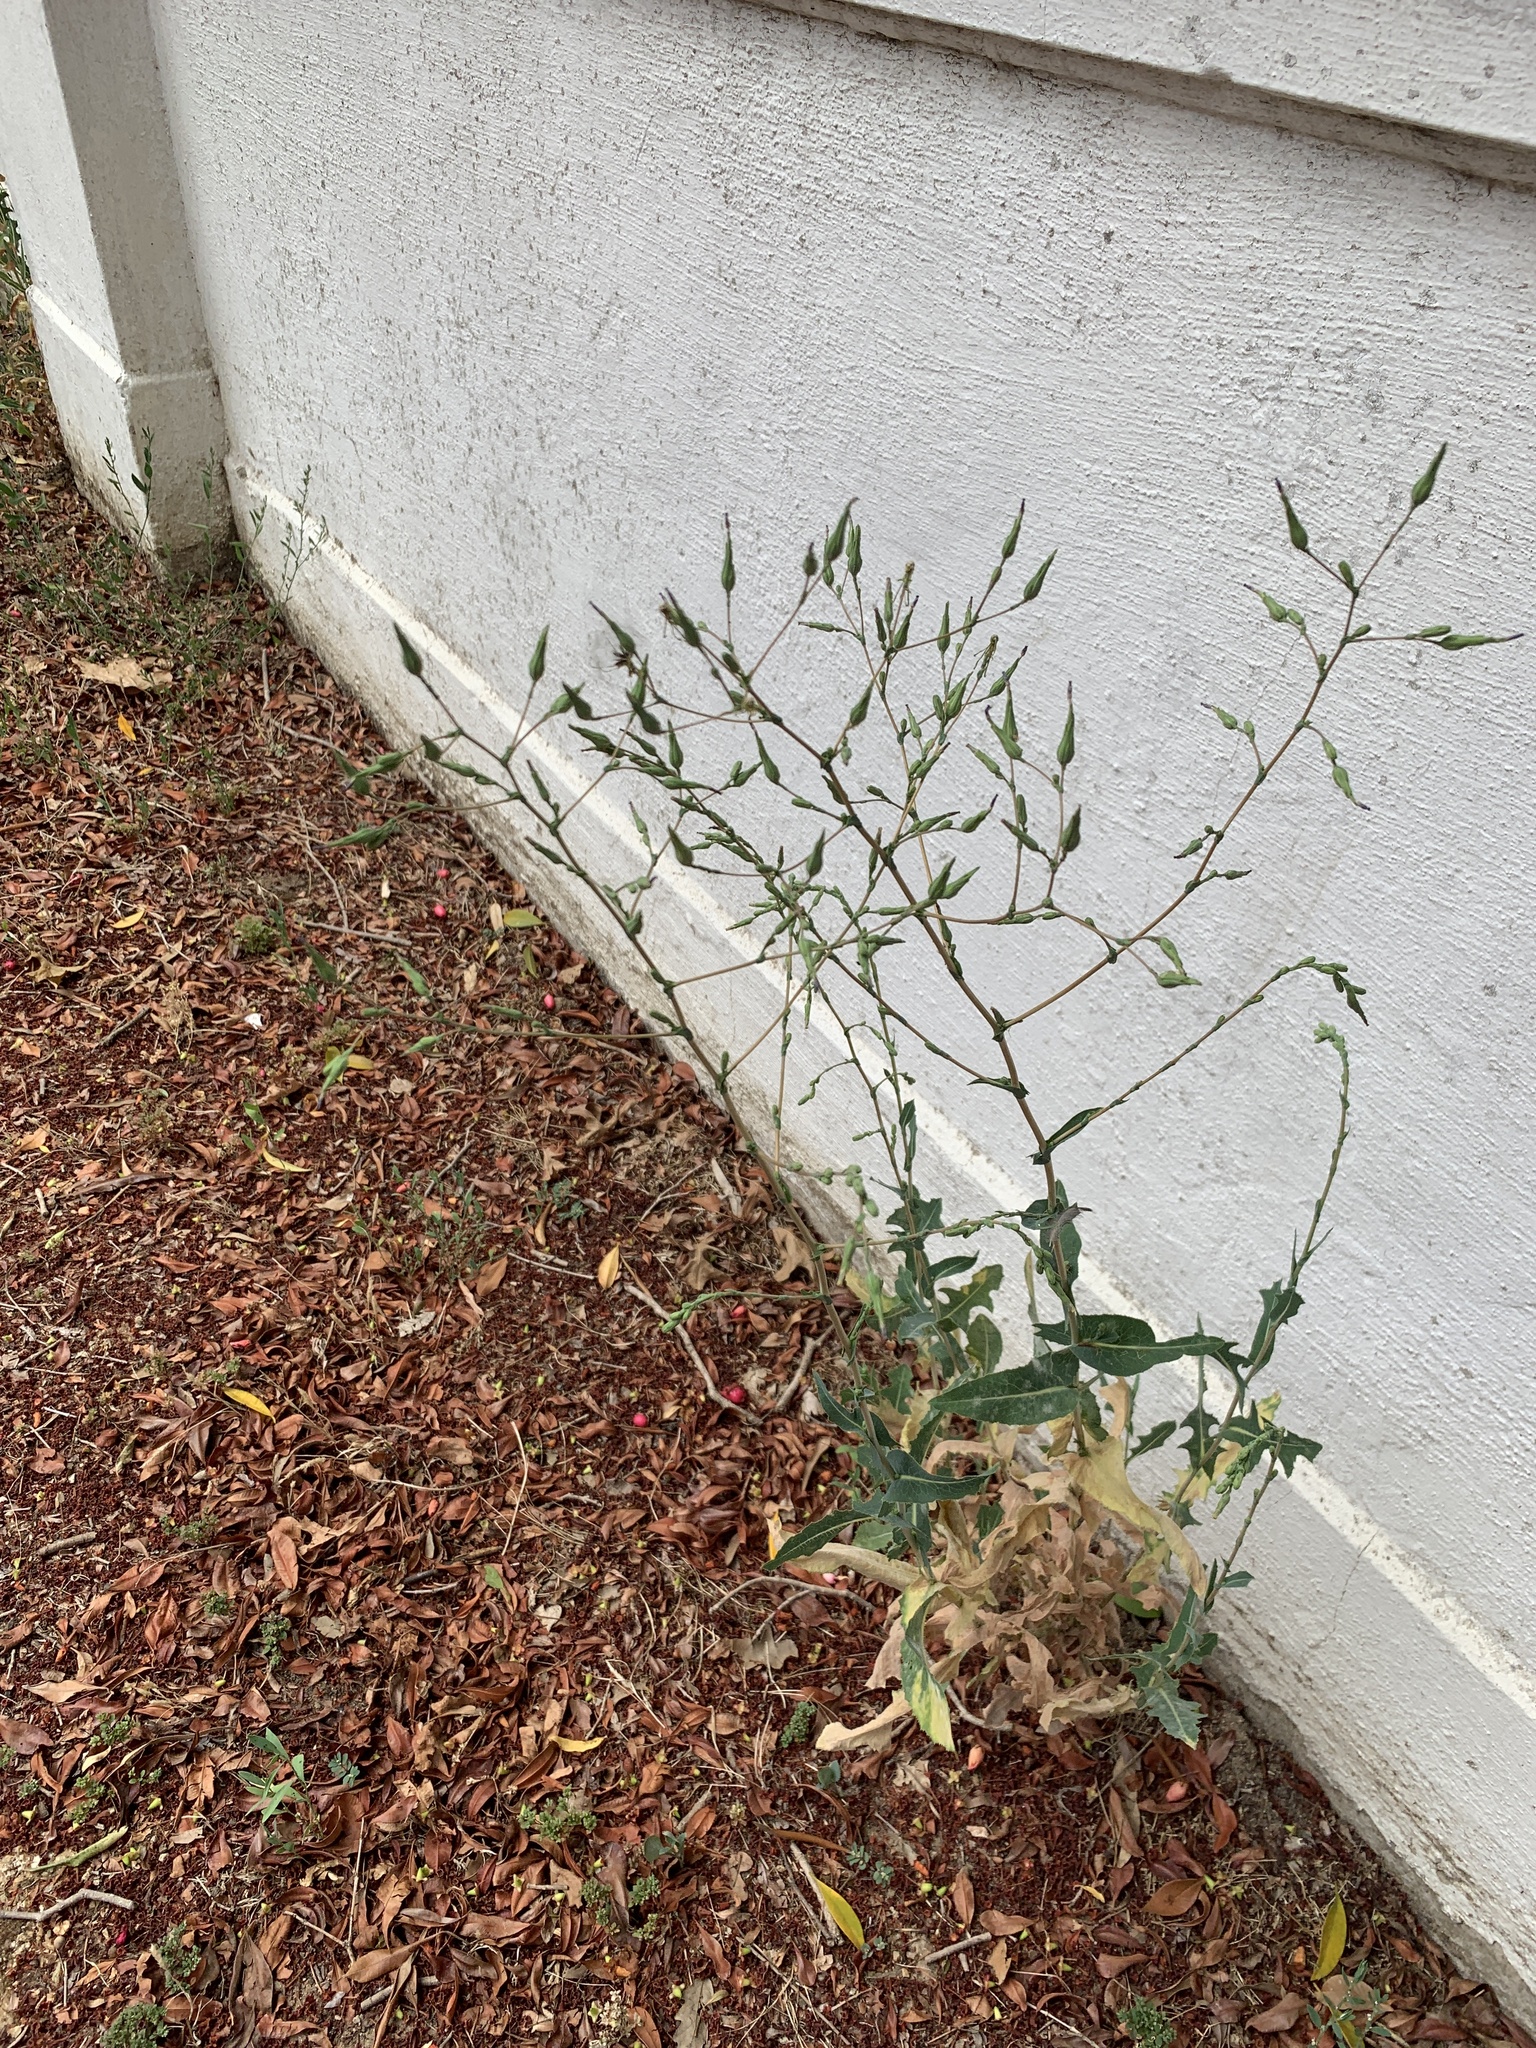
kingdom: Plantae
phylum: Tracheophyta
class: Magnoliopsida
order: Asterales
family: Asteraceae
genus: Lactuca
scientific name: Lactuca serriola
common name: Prickly lettuce
